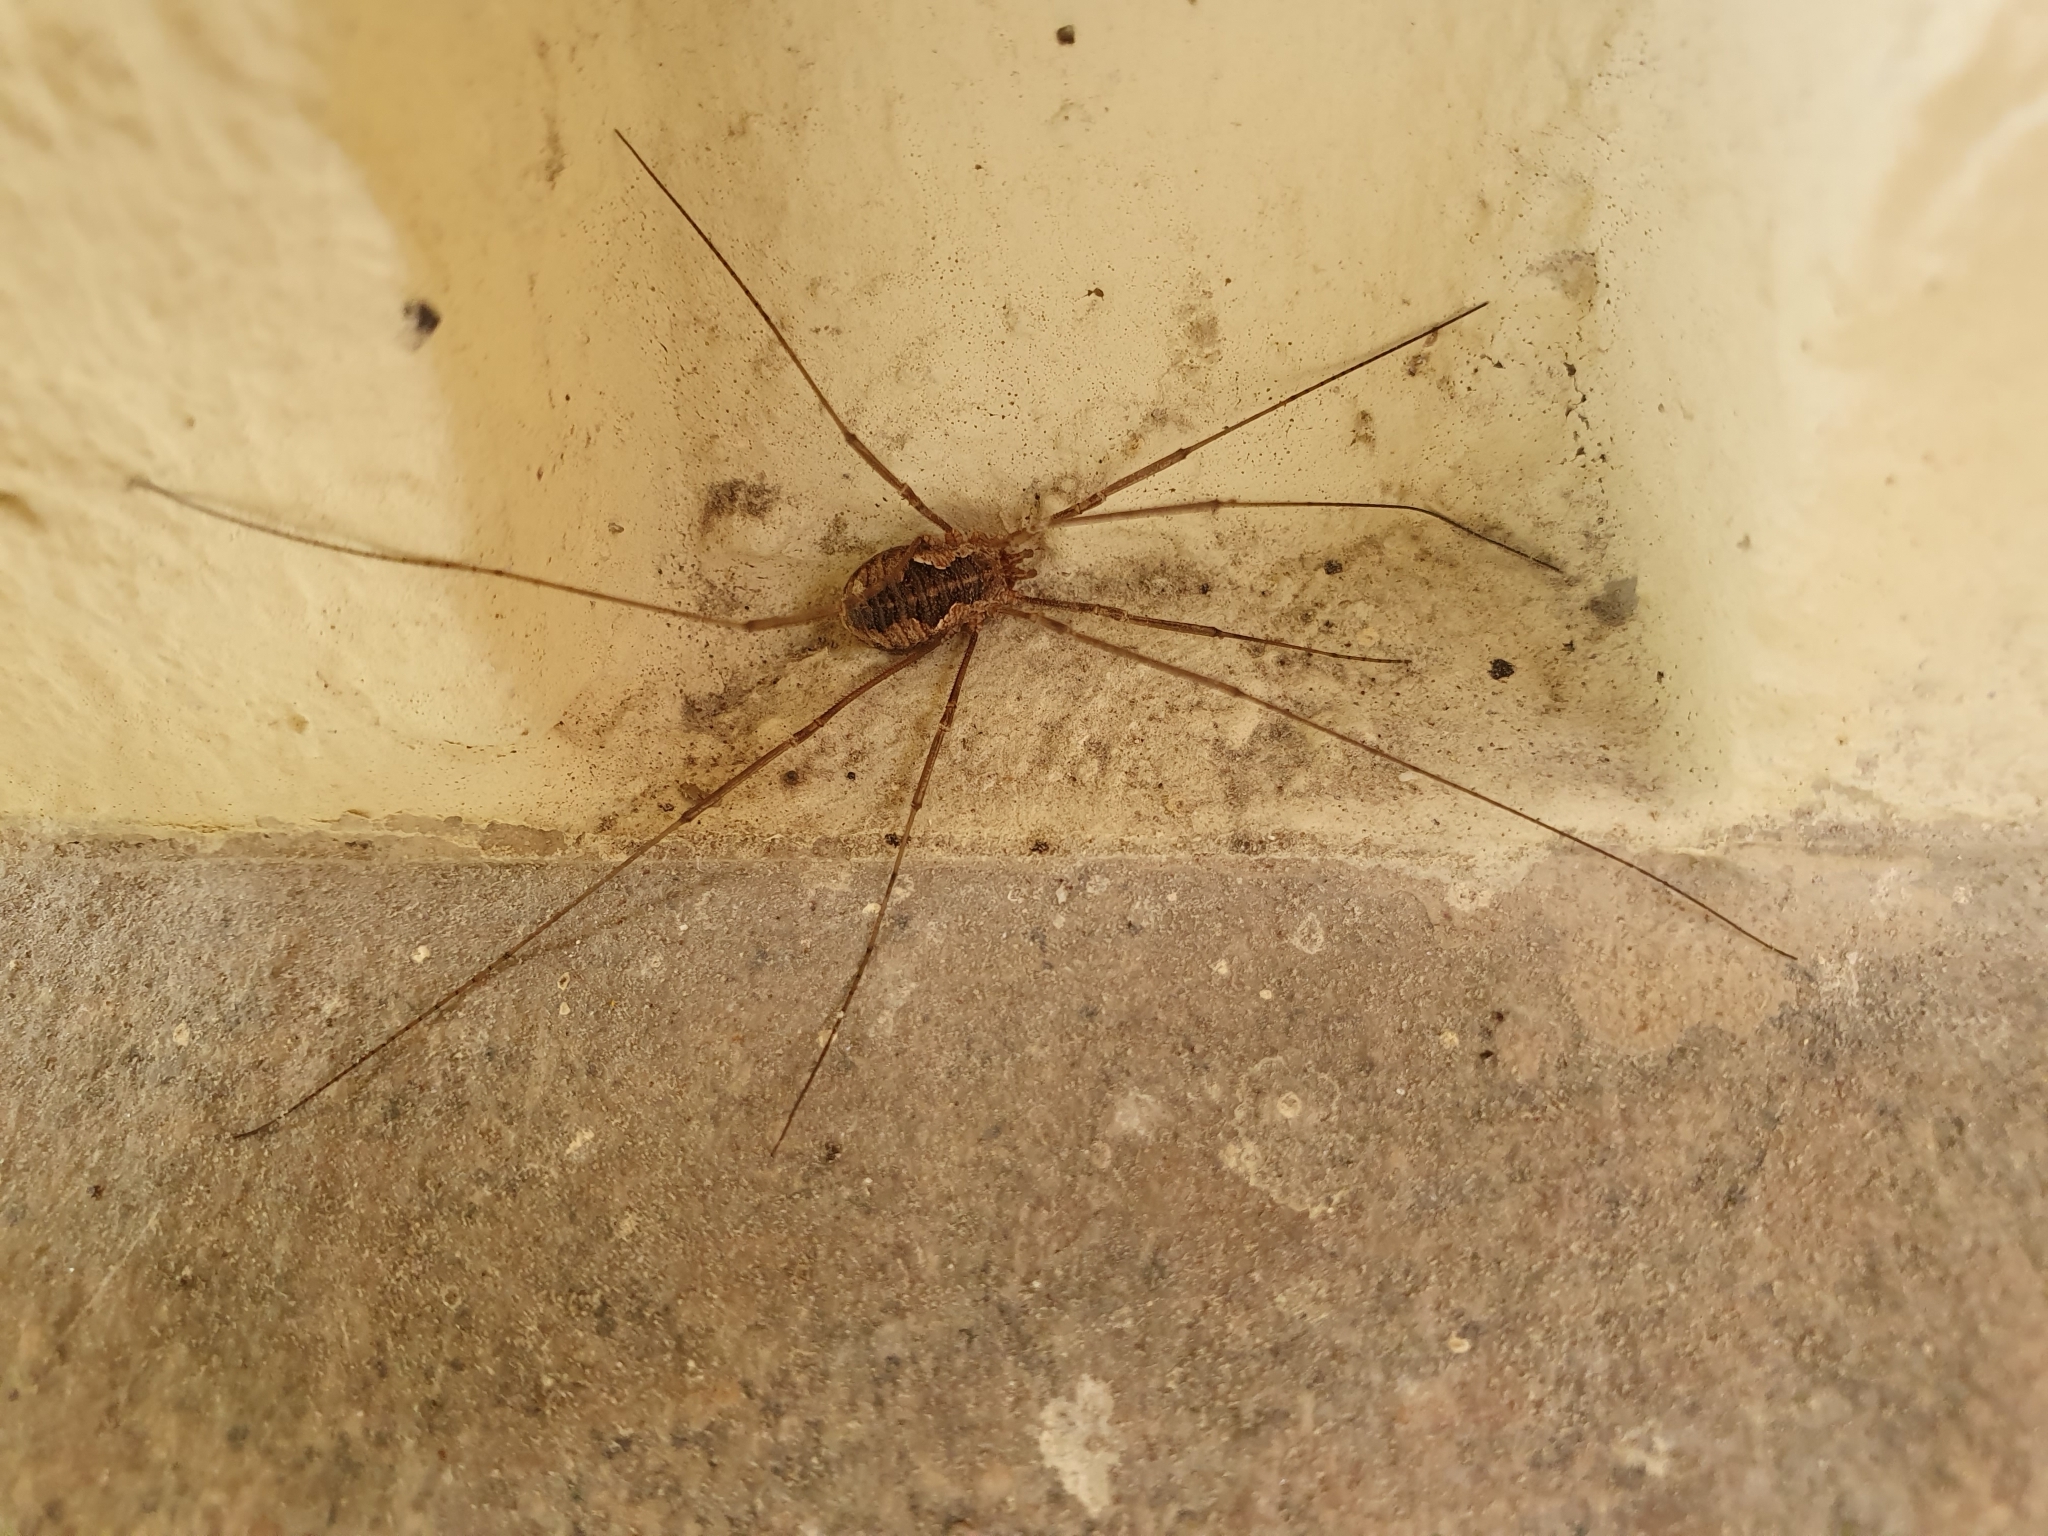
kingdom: Animalia
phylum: Arthropoda
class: Arachnida
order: Opiliones
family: Phalangiidae
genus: Phalangium
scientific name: Phalangium opilio
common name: Daddy longleg
